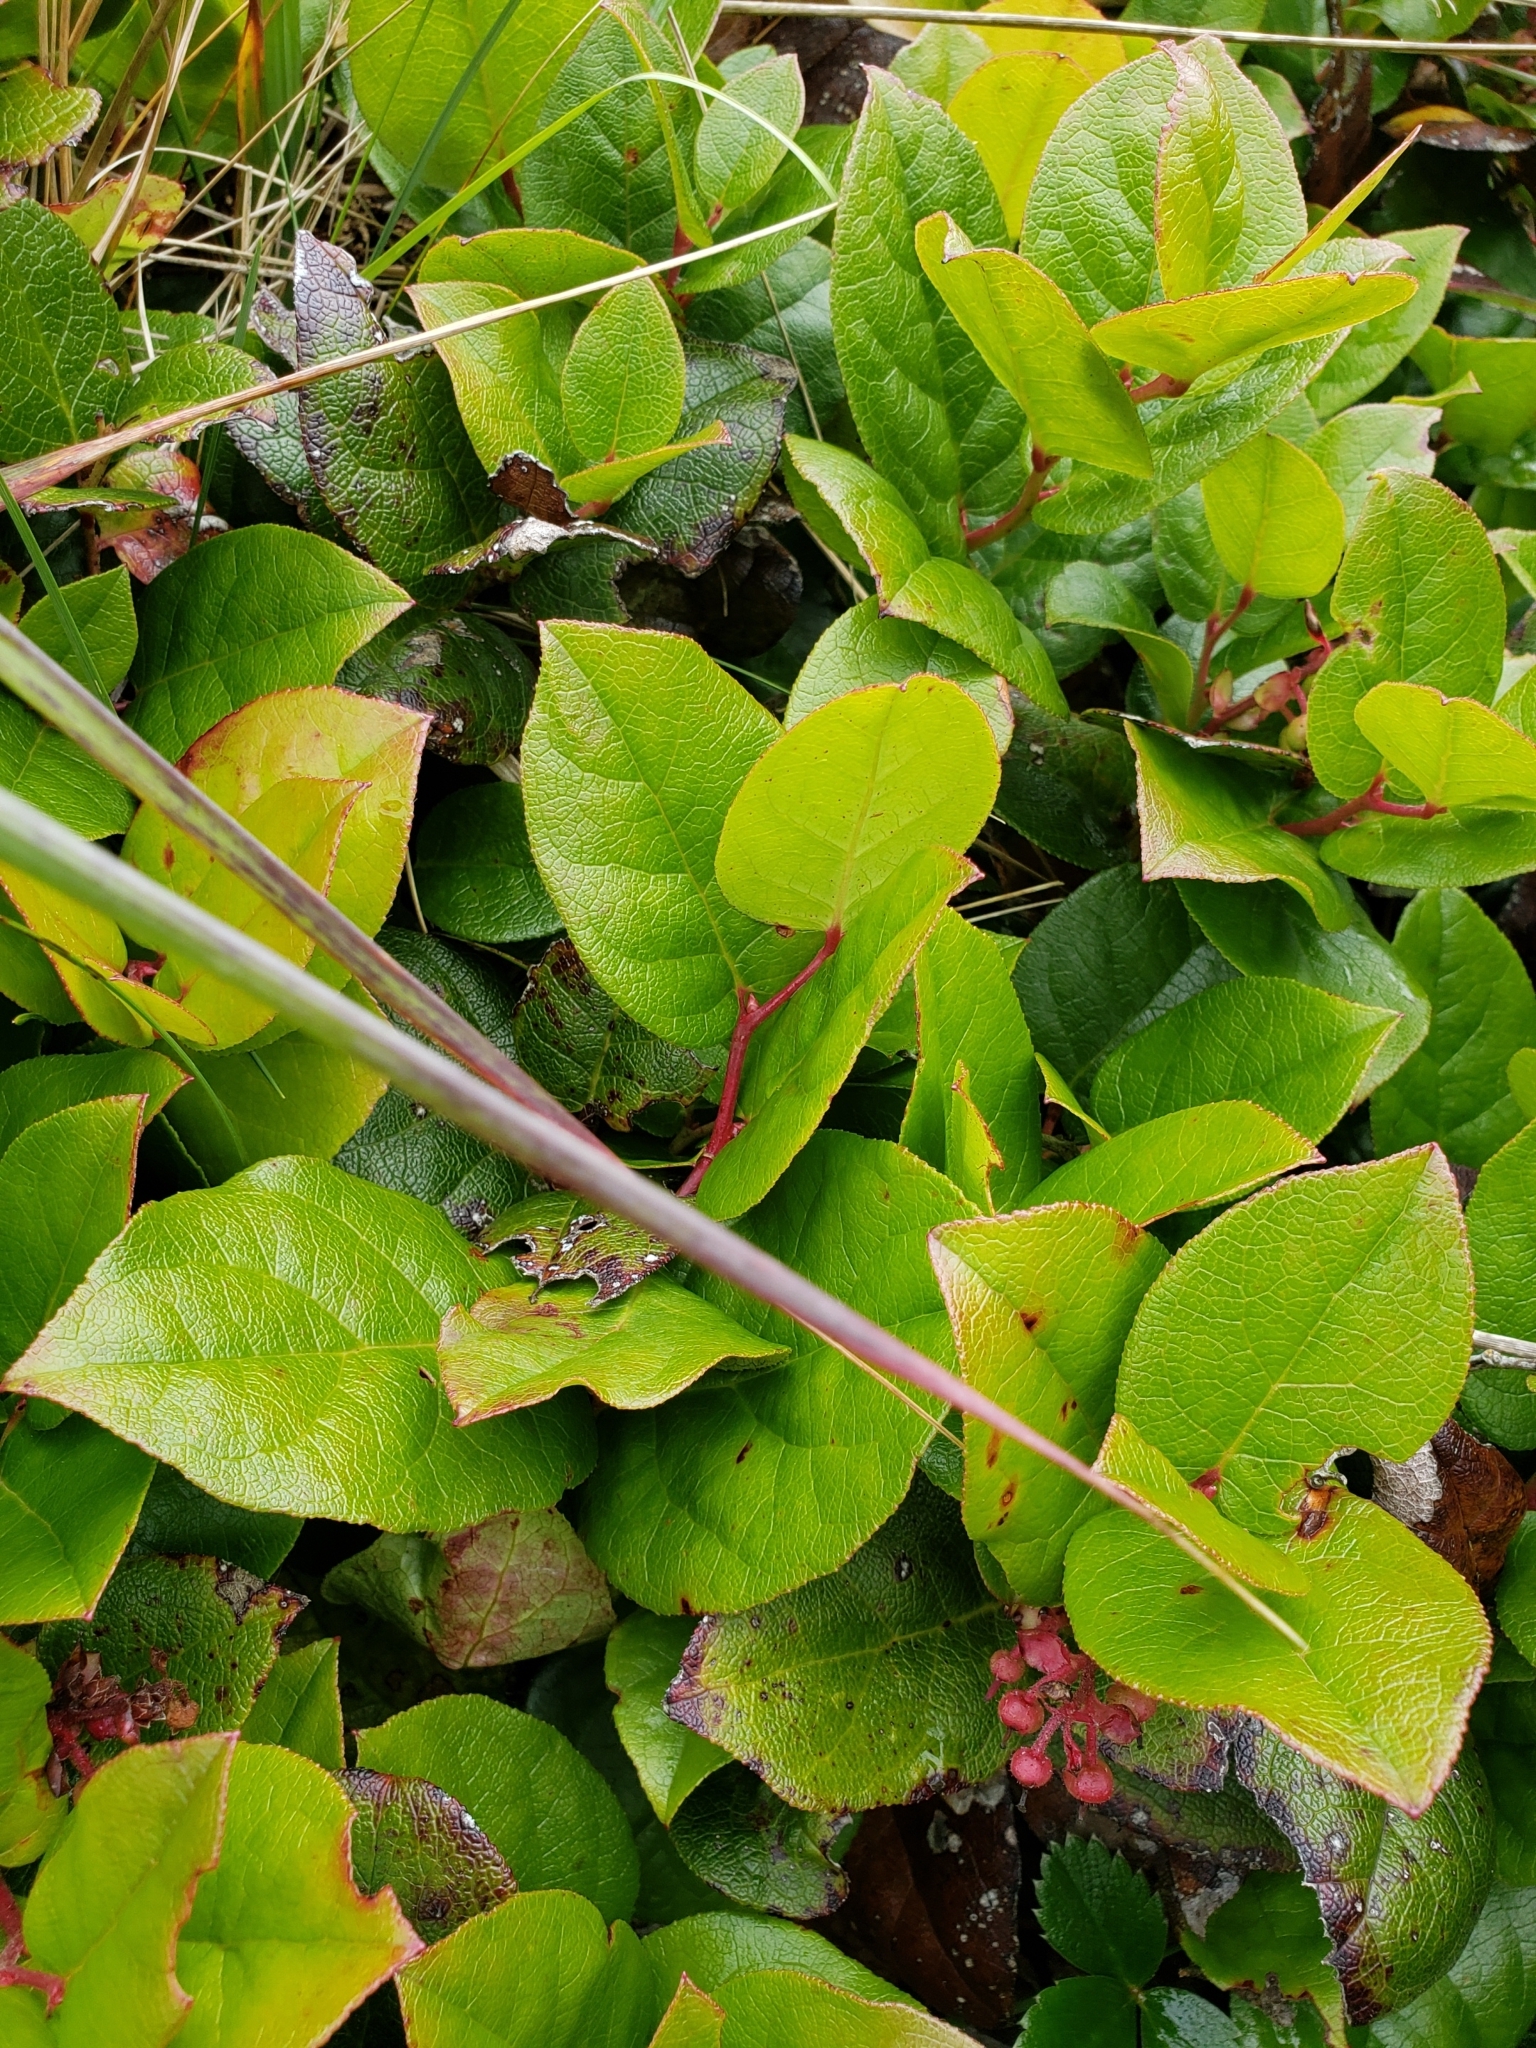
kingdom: Plantae
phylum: Tracheophyta
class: Magnoliopsida
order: Ericales
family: Ericaceae
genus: Gaultheria
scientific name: Gaultheria shallon
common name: Shallon
